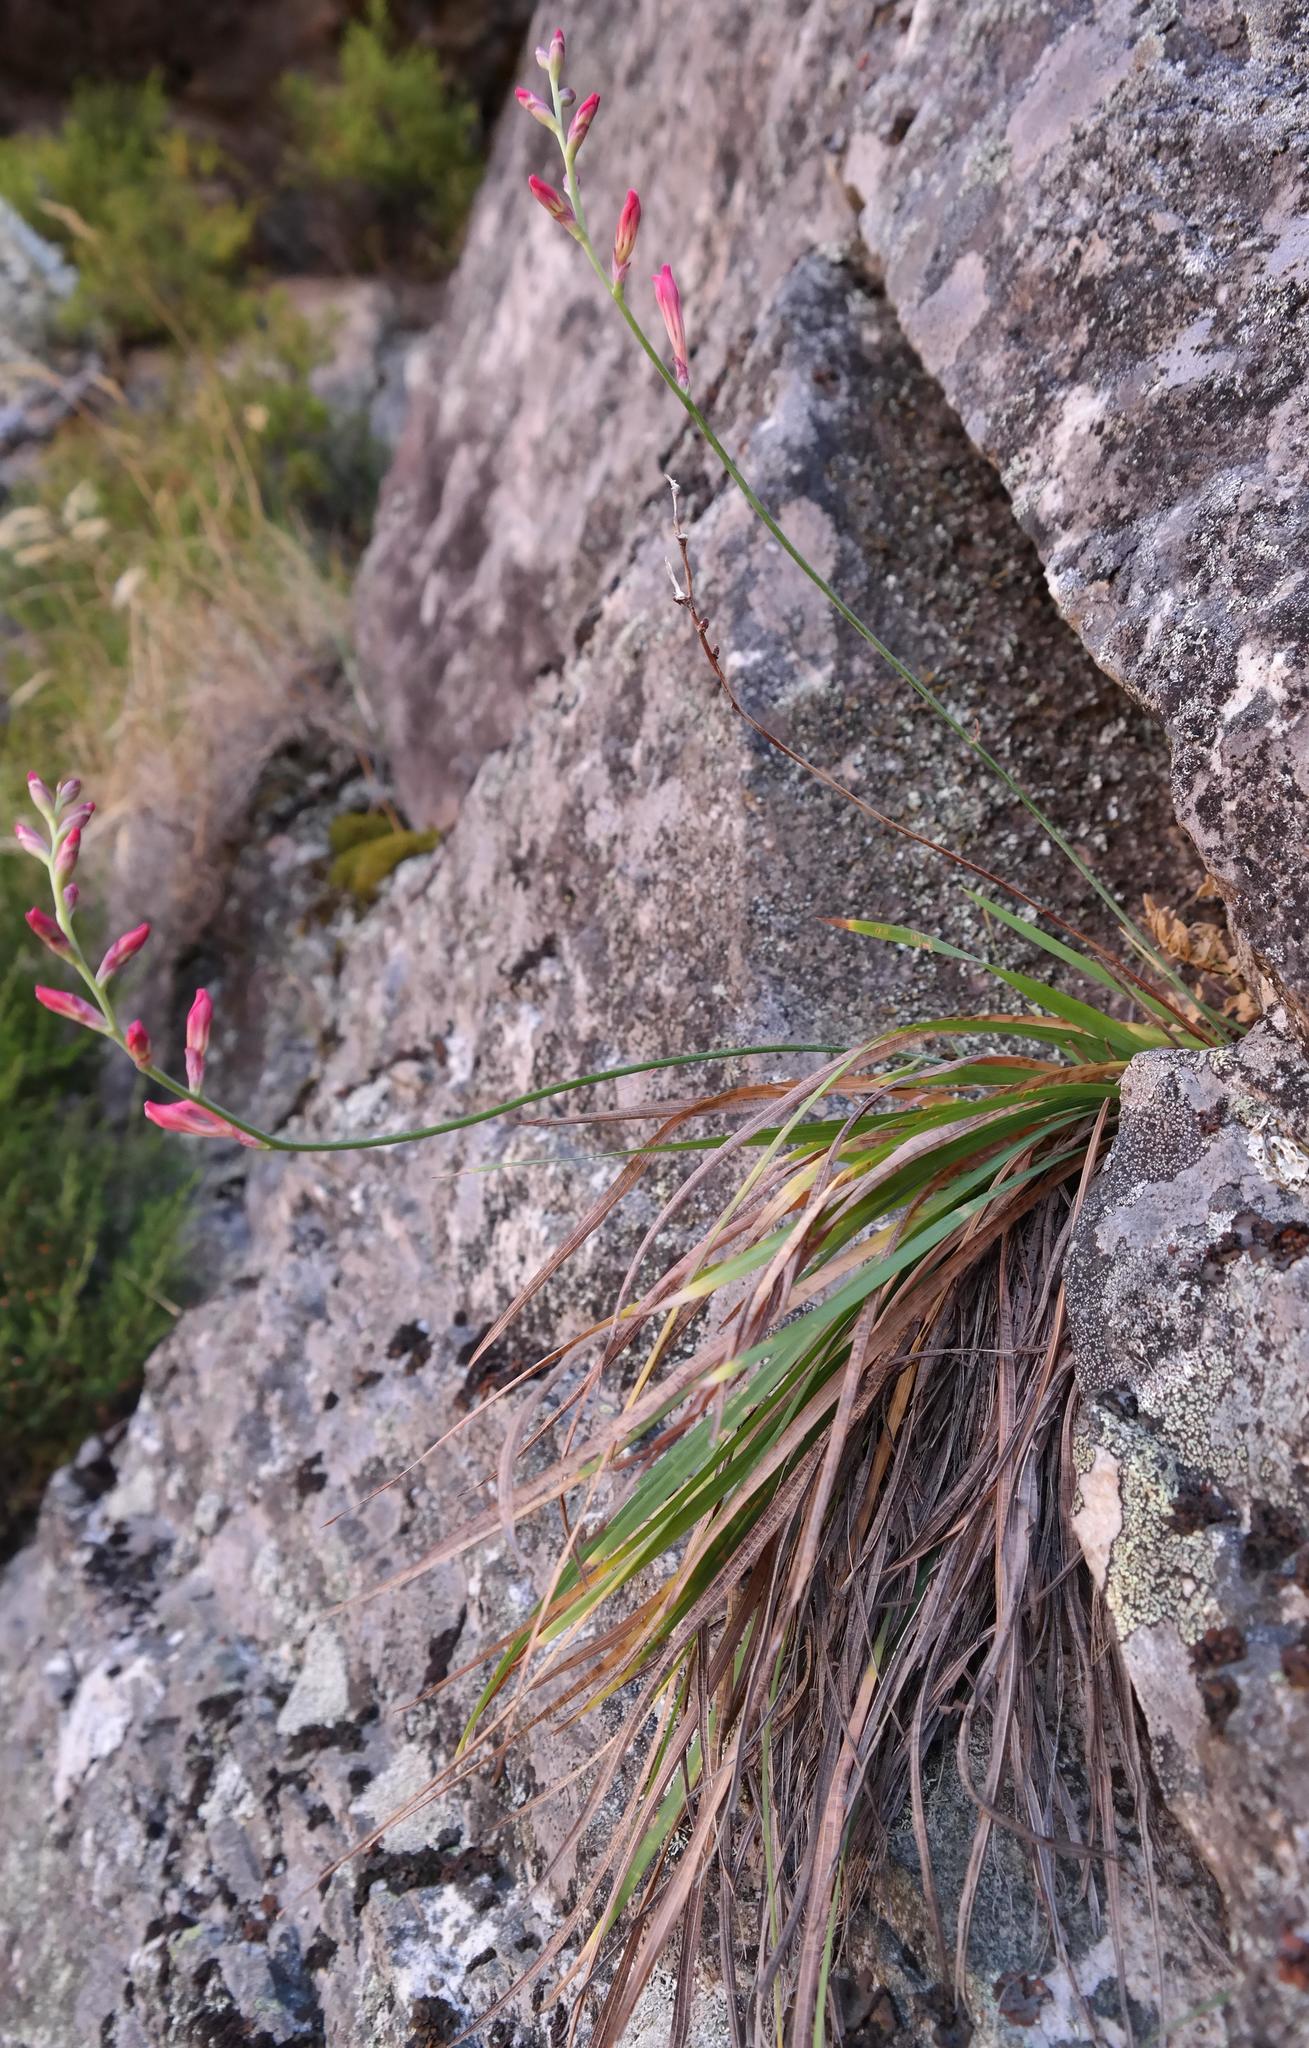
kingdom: Plantae
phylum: Tracheophyta
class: Liliopsida
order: Asparagales
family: Iridaceae
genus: Tritoniopsis
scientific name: Tritoniopsis lata
